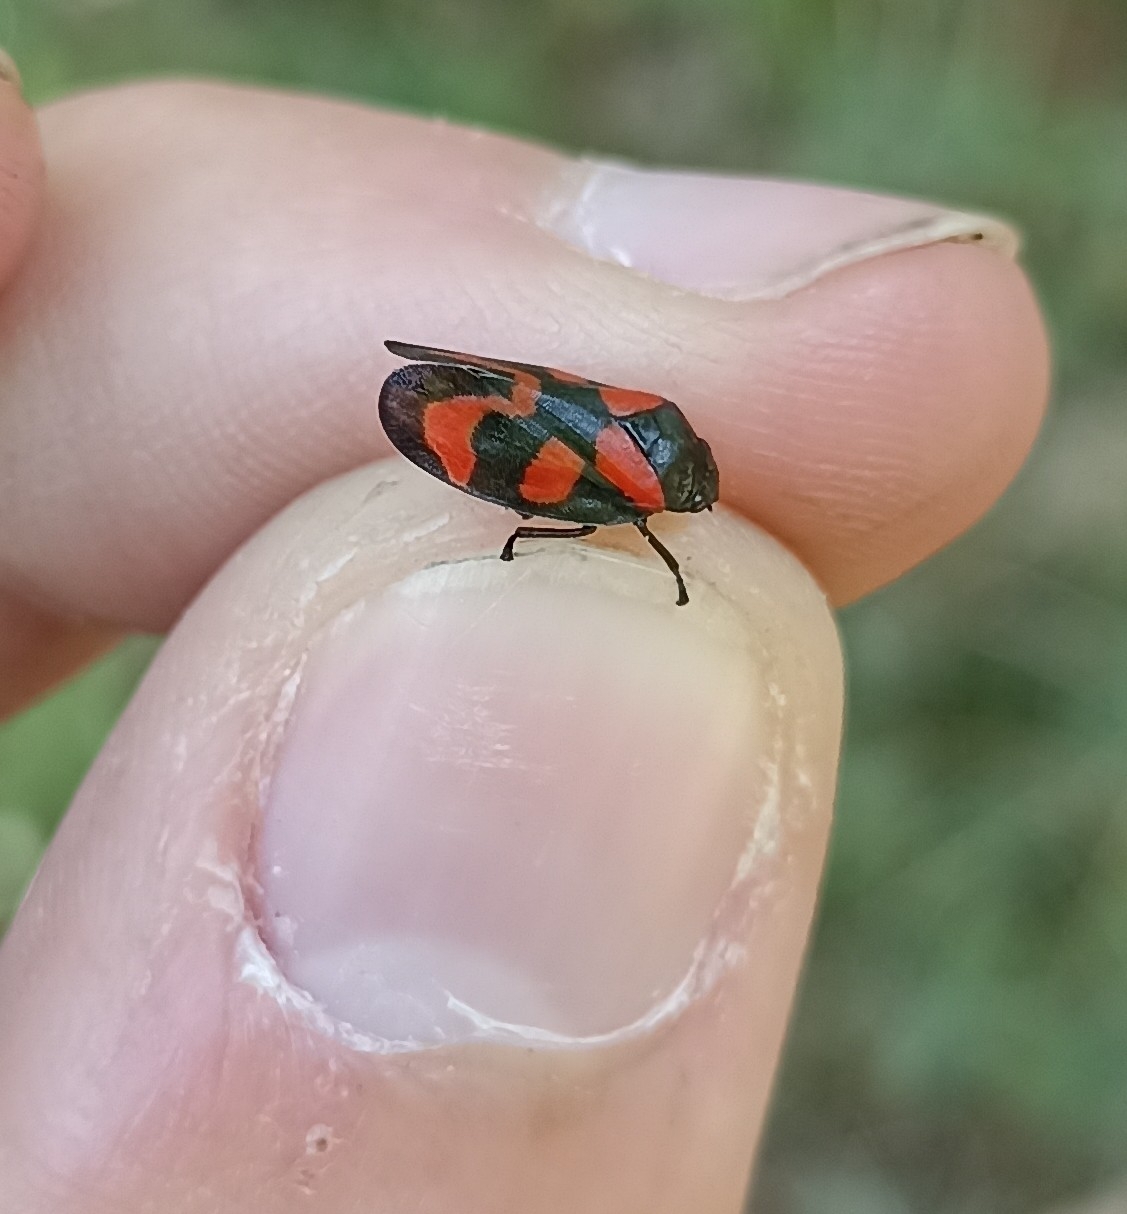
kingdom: Animalia
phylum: Arthropoda
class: Insecta
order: Hemiptera
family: Cercopidae
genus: Cercopis
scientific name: Cercopis vulnerata
